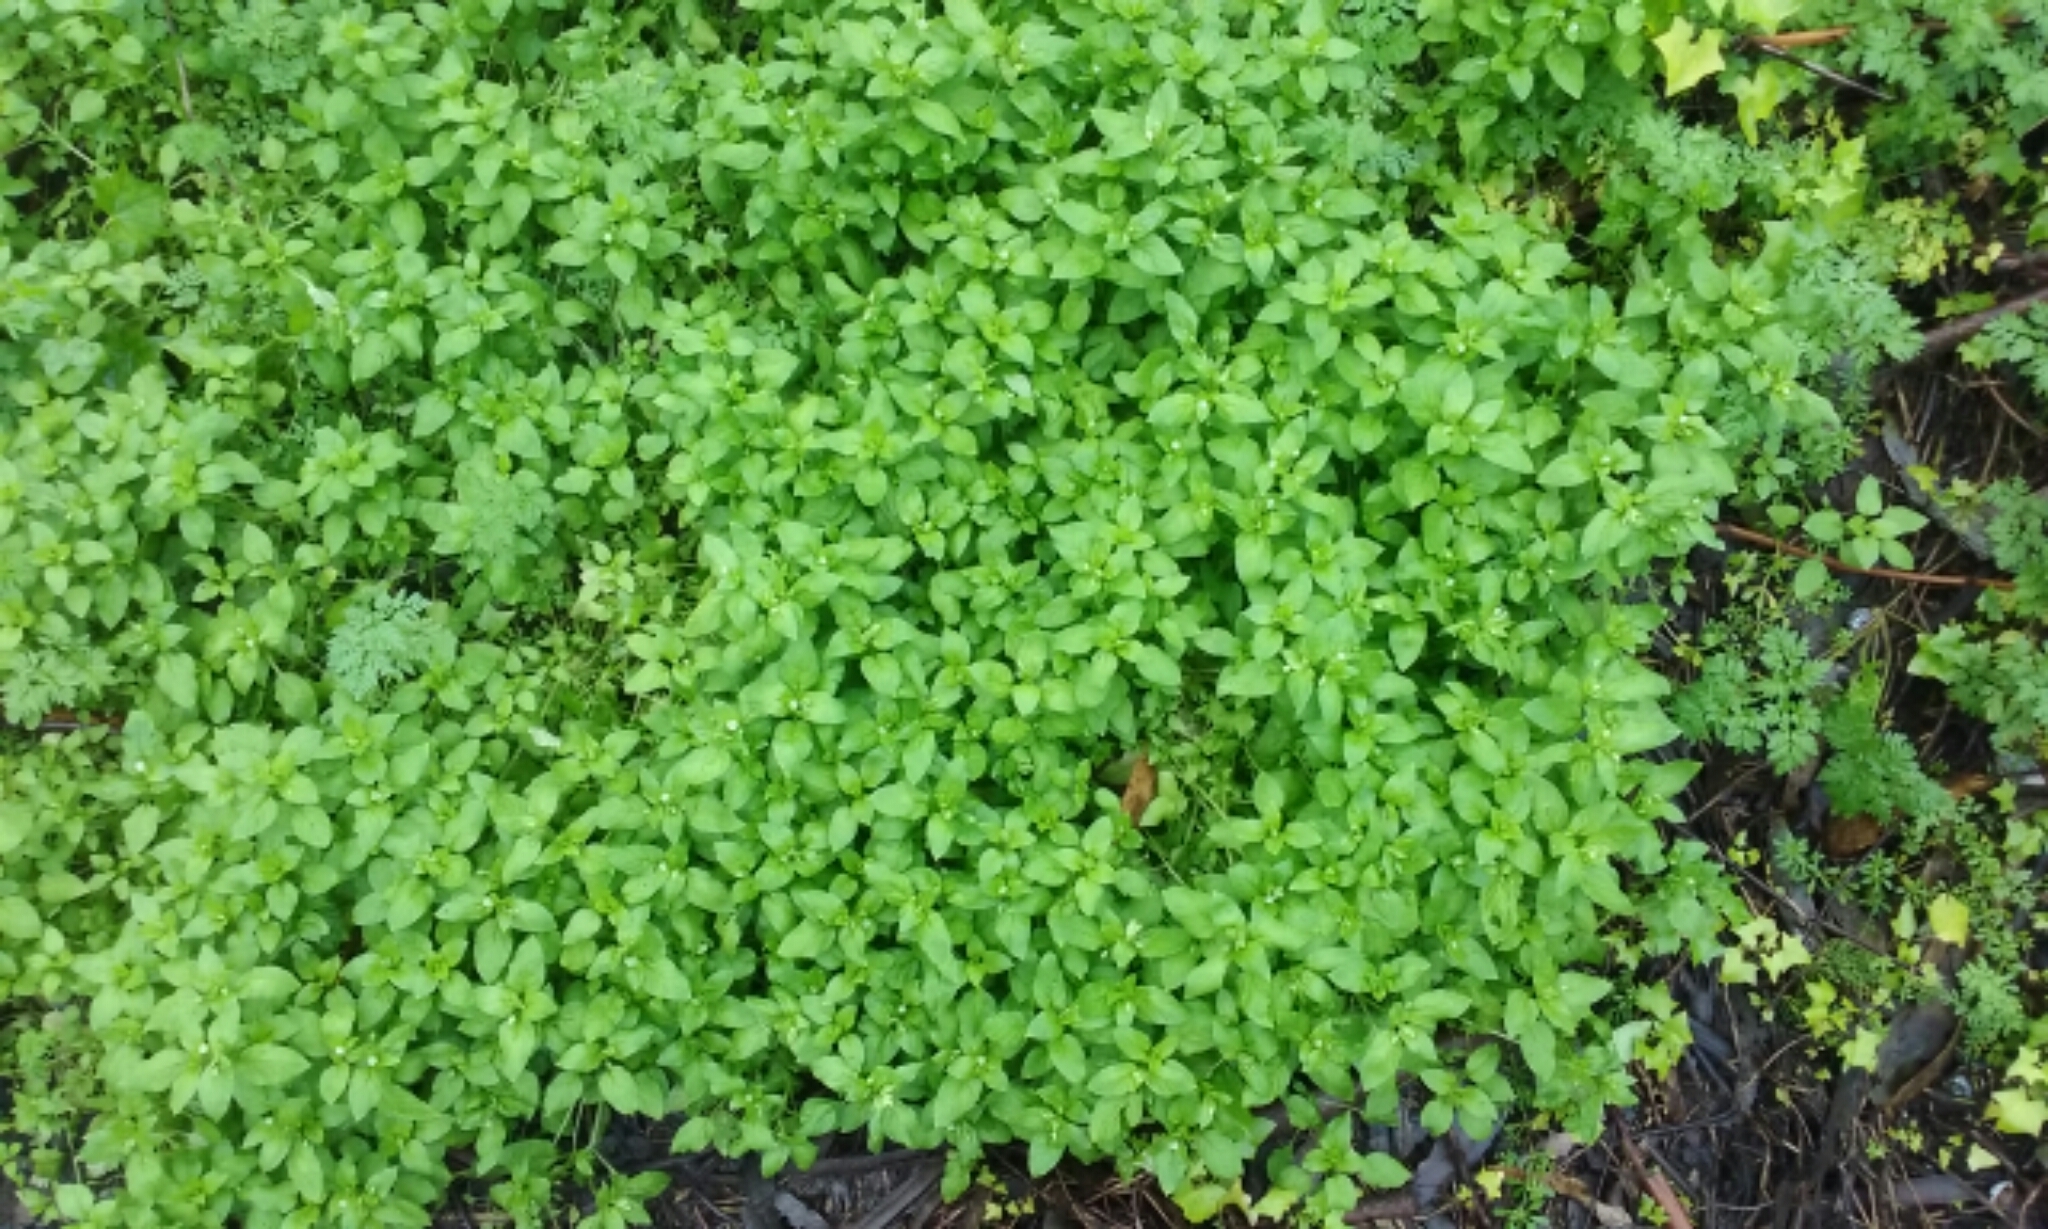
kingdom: Plantae
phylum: Tracheophyta
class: Magnoliopsida
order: Caryophyllales
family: Caryophyllaceae
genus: Stellaria
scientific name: Stellaria media
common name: Common chickweed
